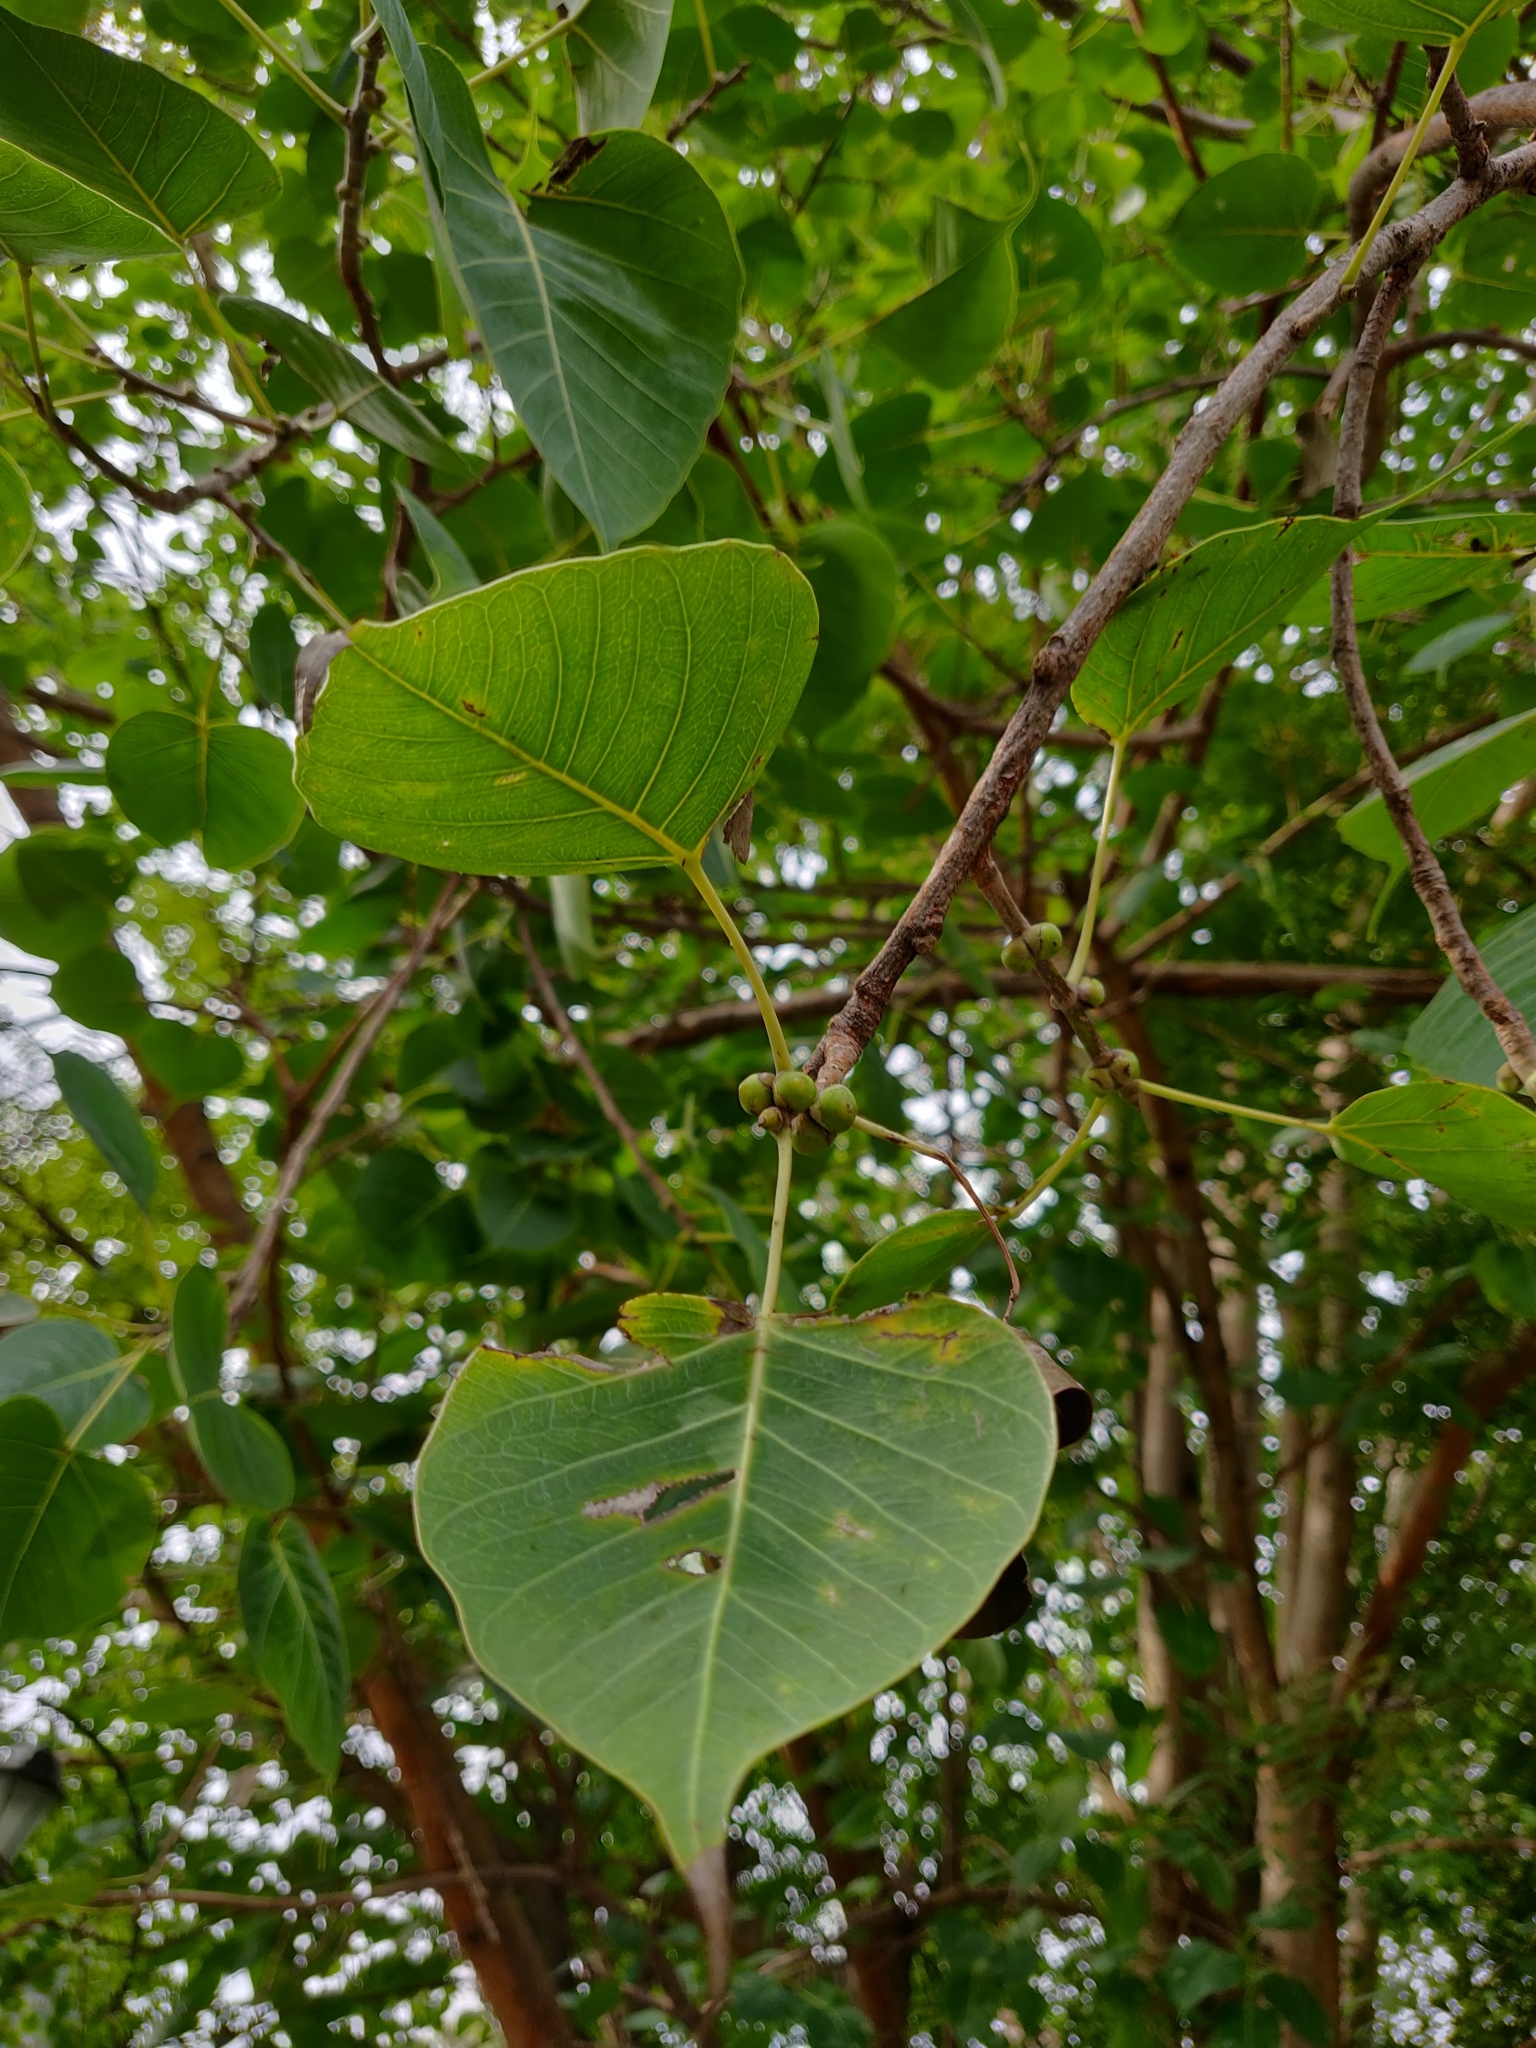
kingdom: Plantae
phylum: Tracheophyta
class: Magnoliopsida
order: Rosales
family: Moraceae
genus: Ficus
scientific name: Ficus religiosa
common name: Bodhi tree
